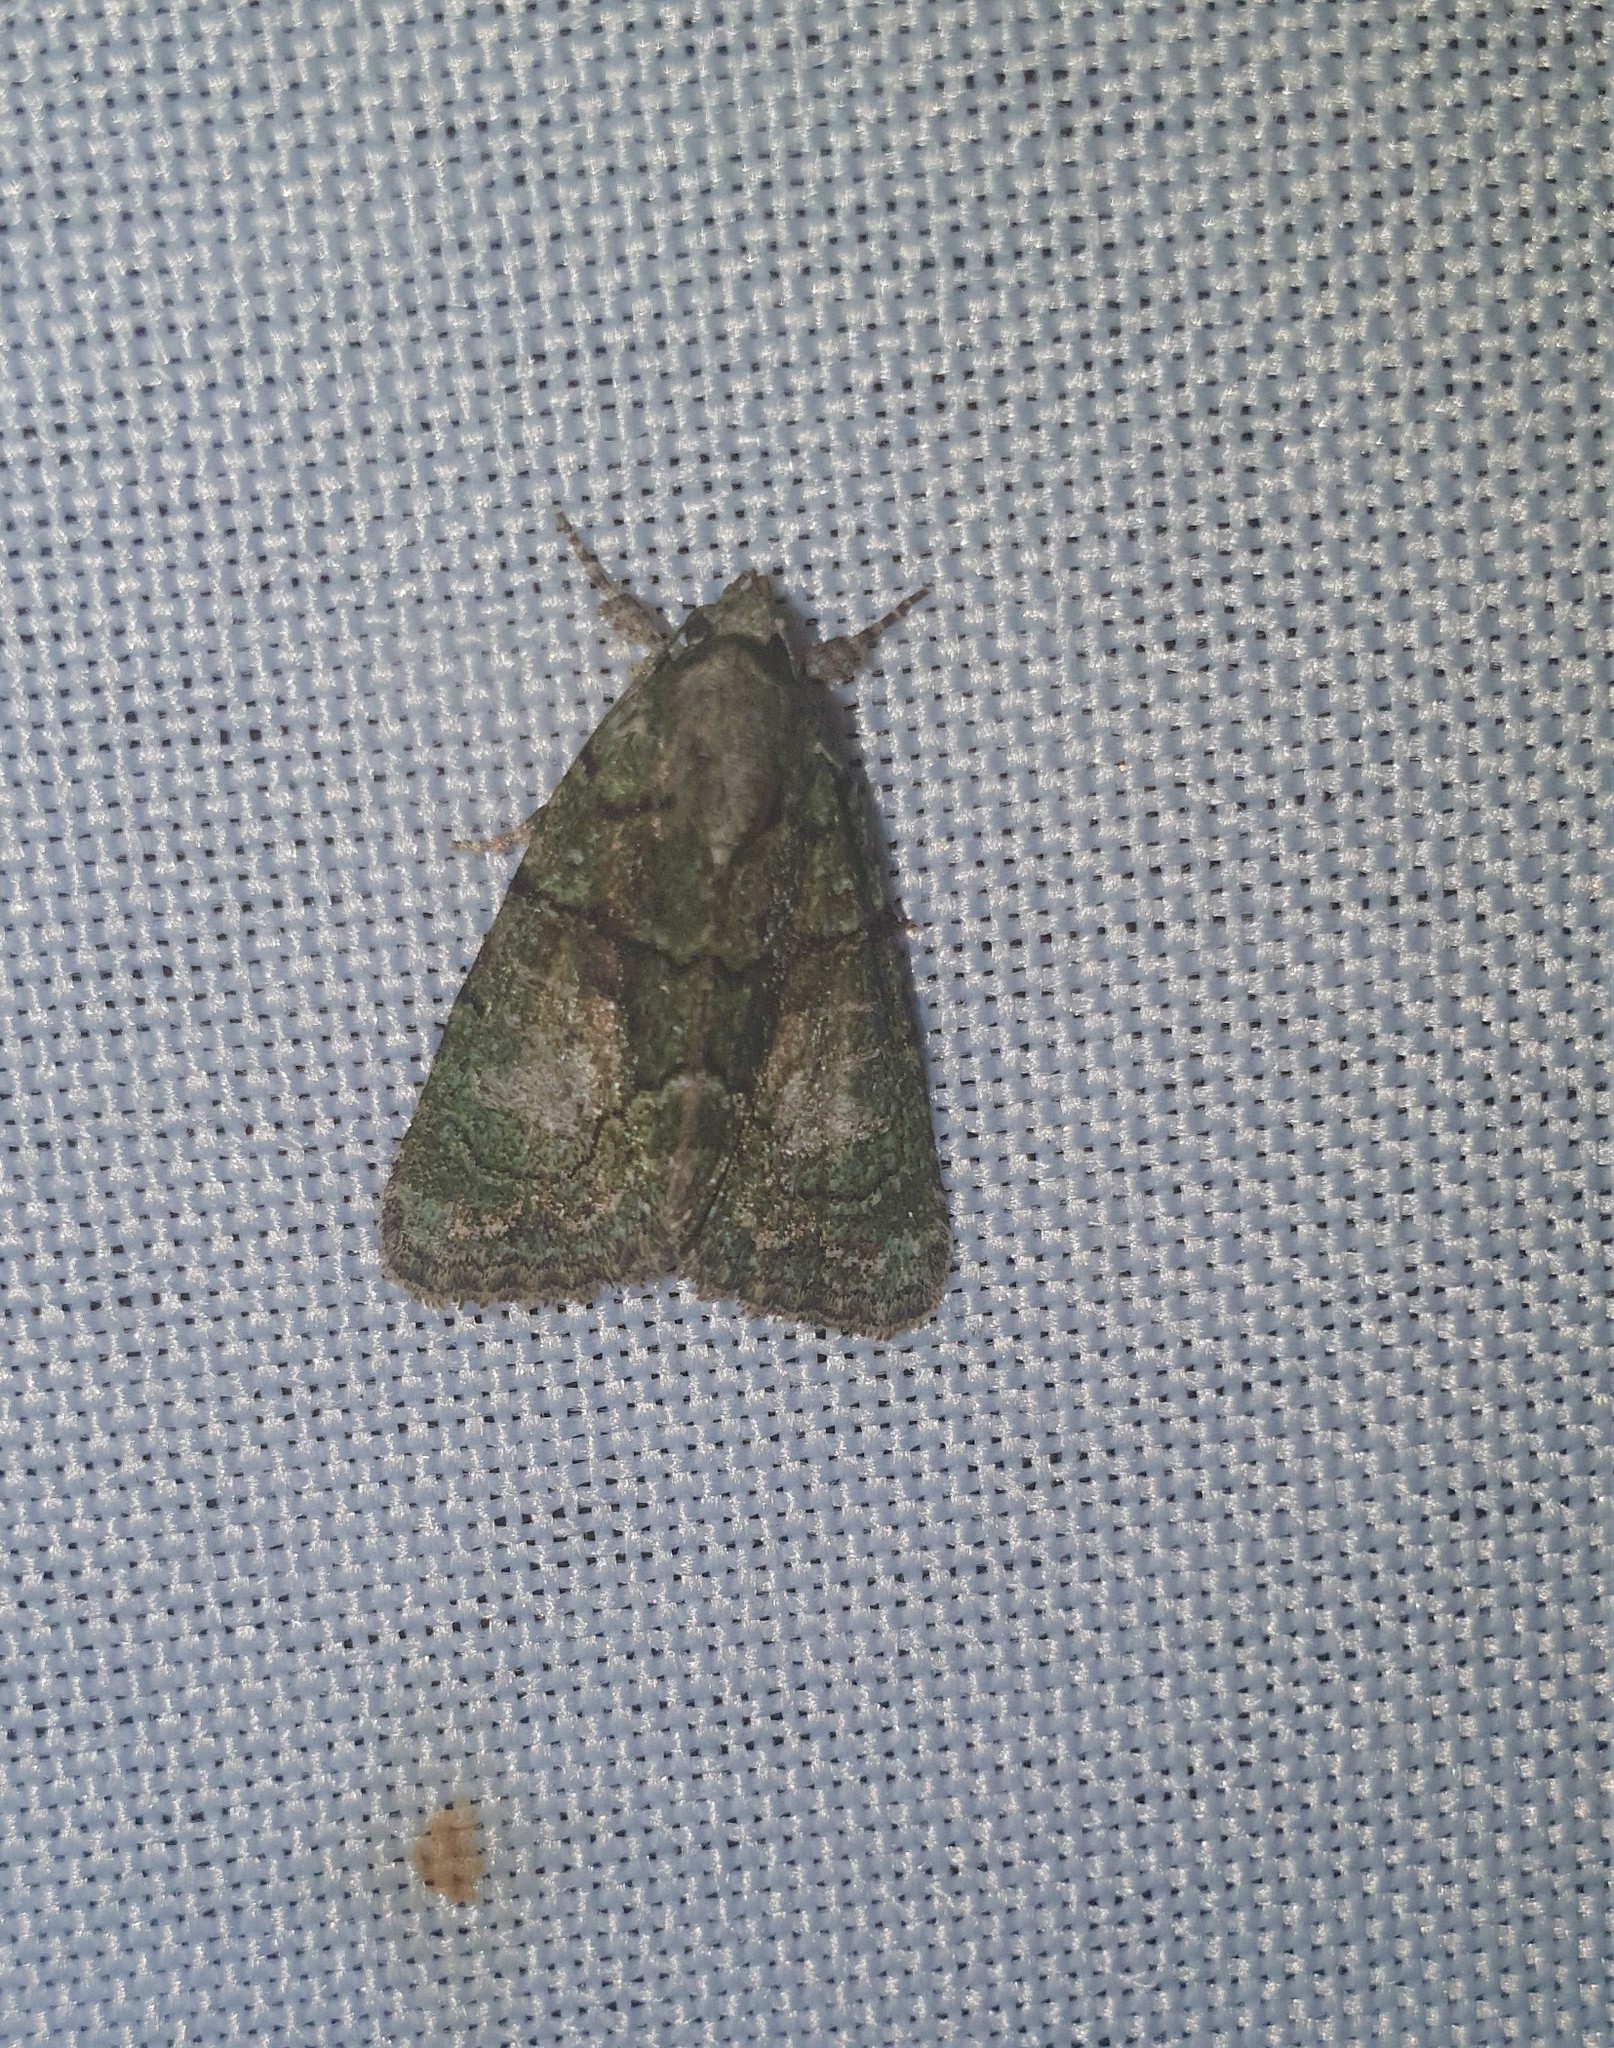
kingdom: Animalia
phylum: Arthropoda
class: Insecta
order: Lepidoptera
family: Noctuidae
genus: Cryphia
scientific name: Cryphia algae
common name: Tree-lichen beauty
